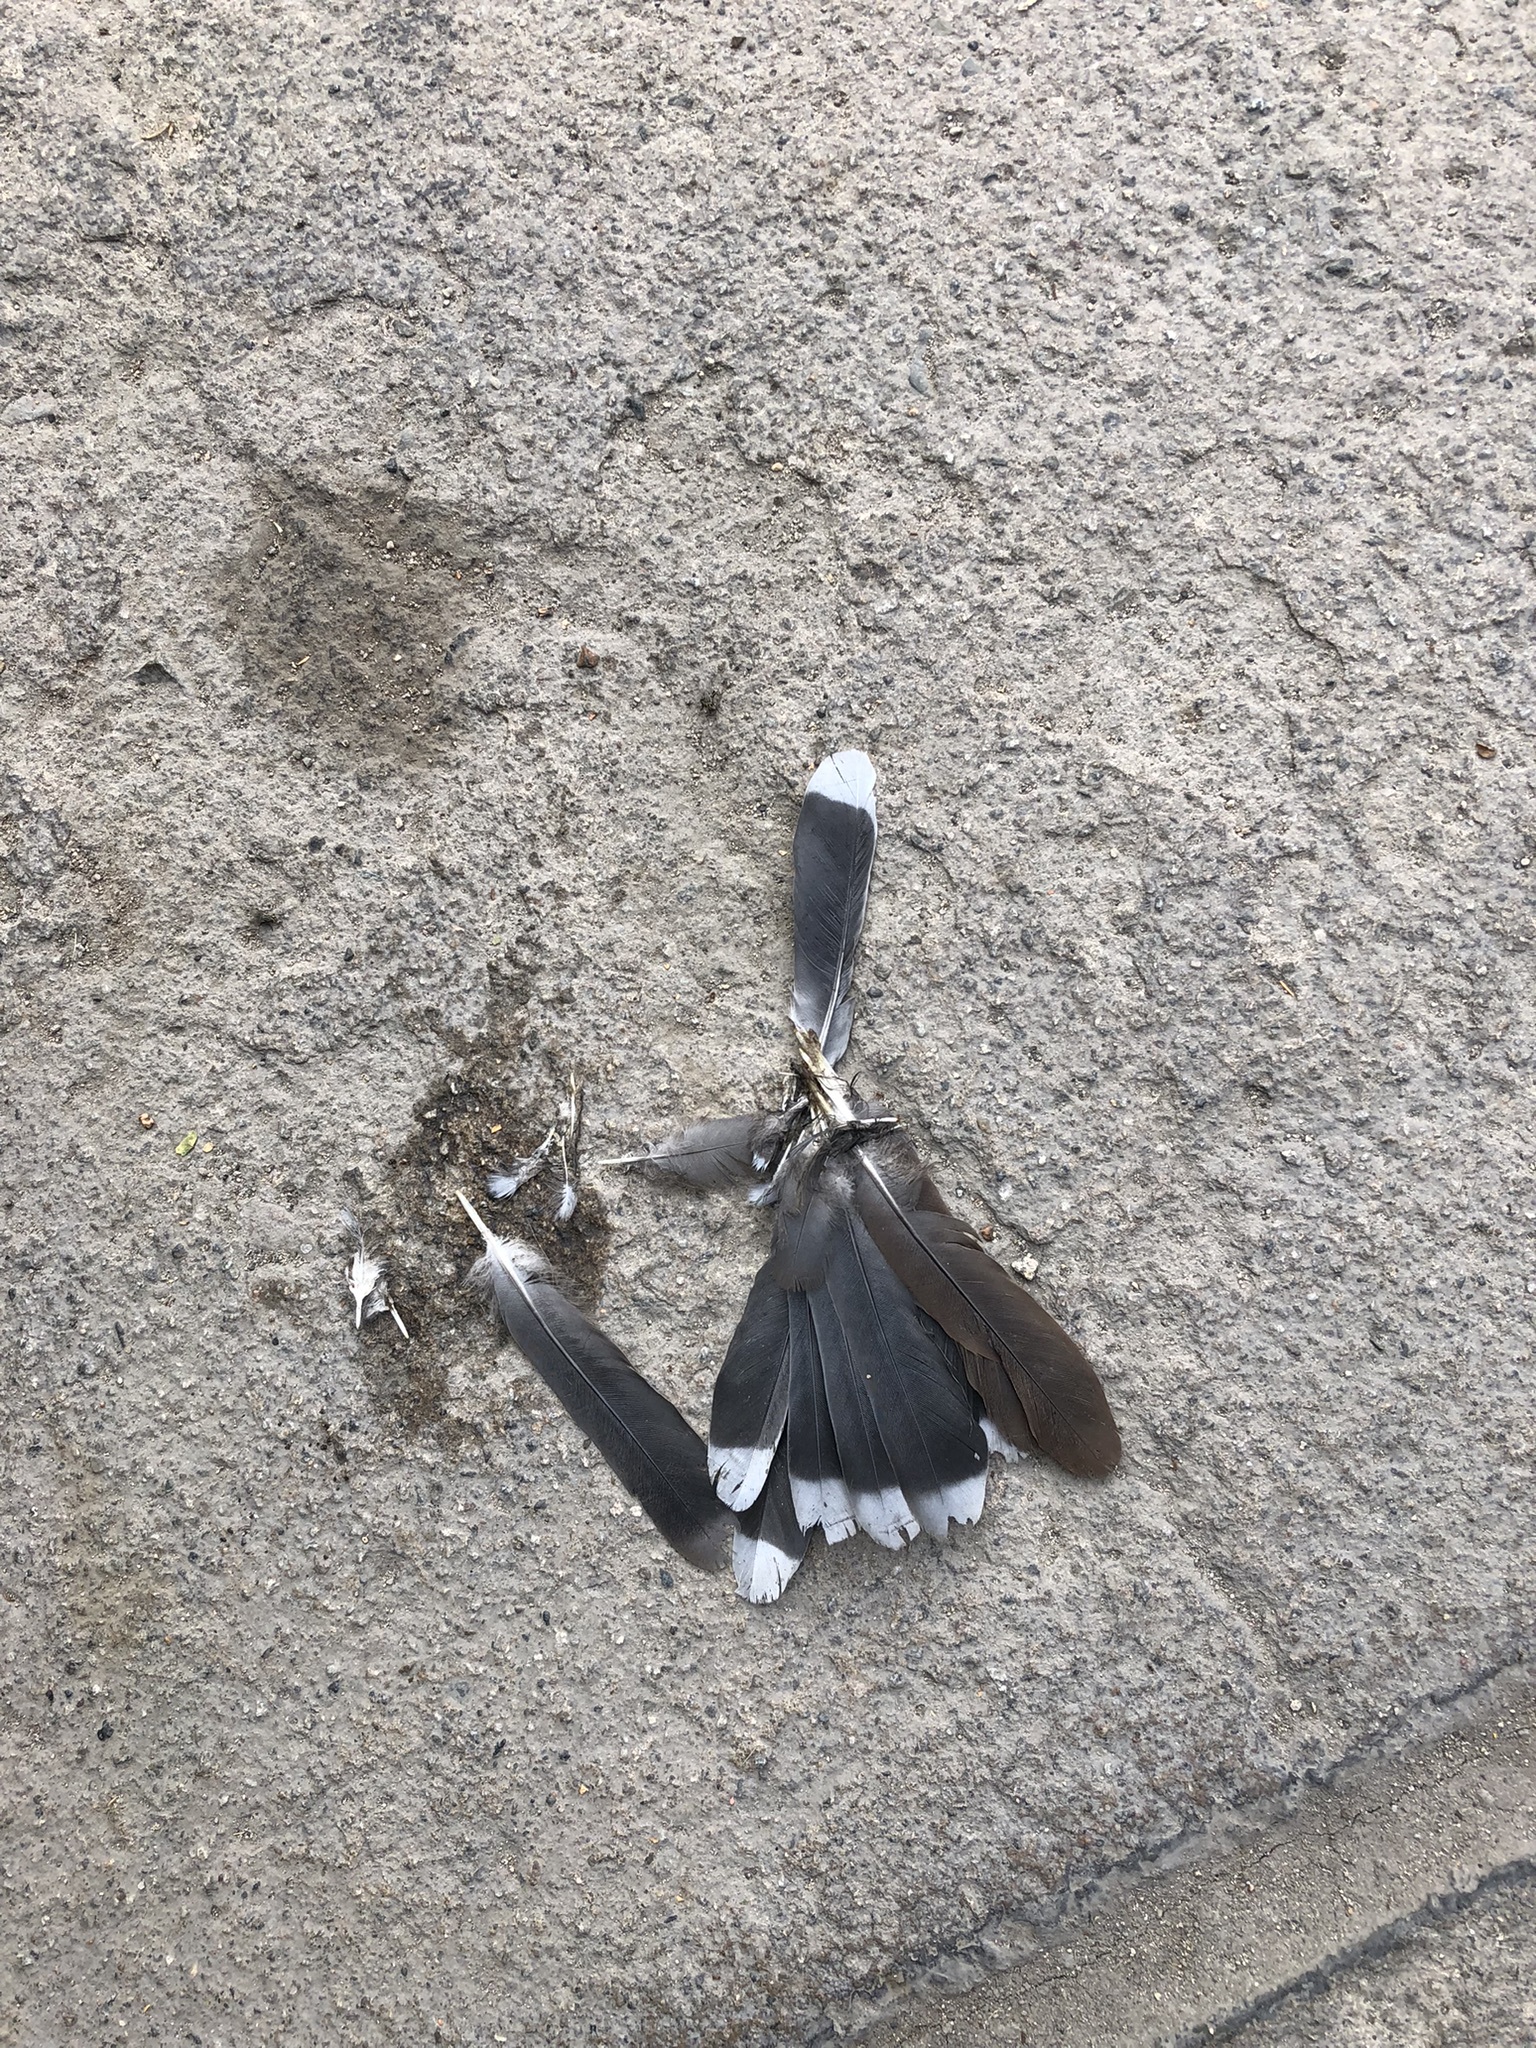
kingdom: Animalia
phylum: Chordata
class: Aves
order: Columbiformes
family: Columbidae
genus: Zenaida
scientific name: Zenaida meloda
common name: West peruvian dove
